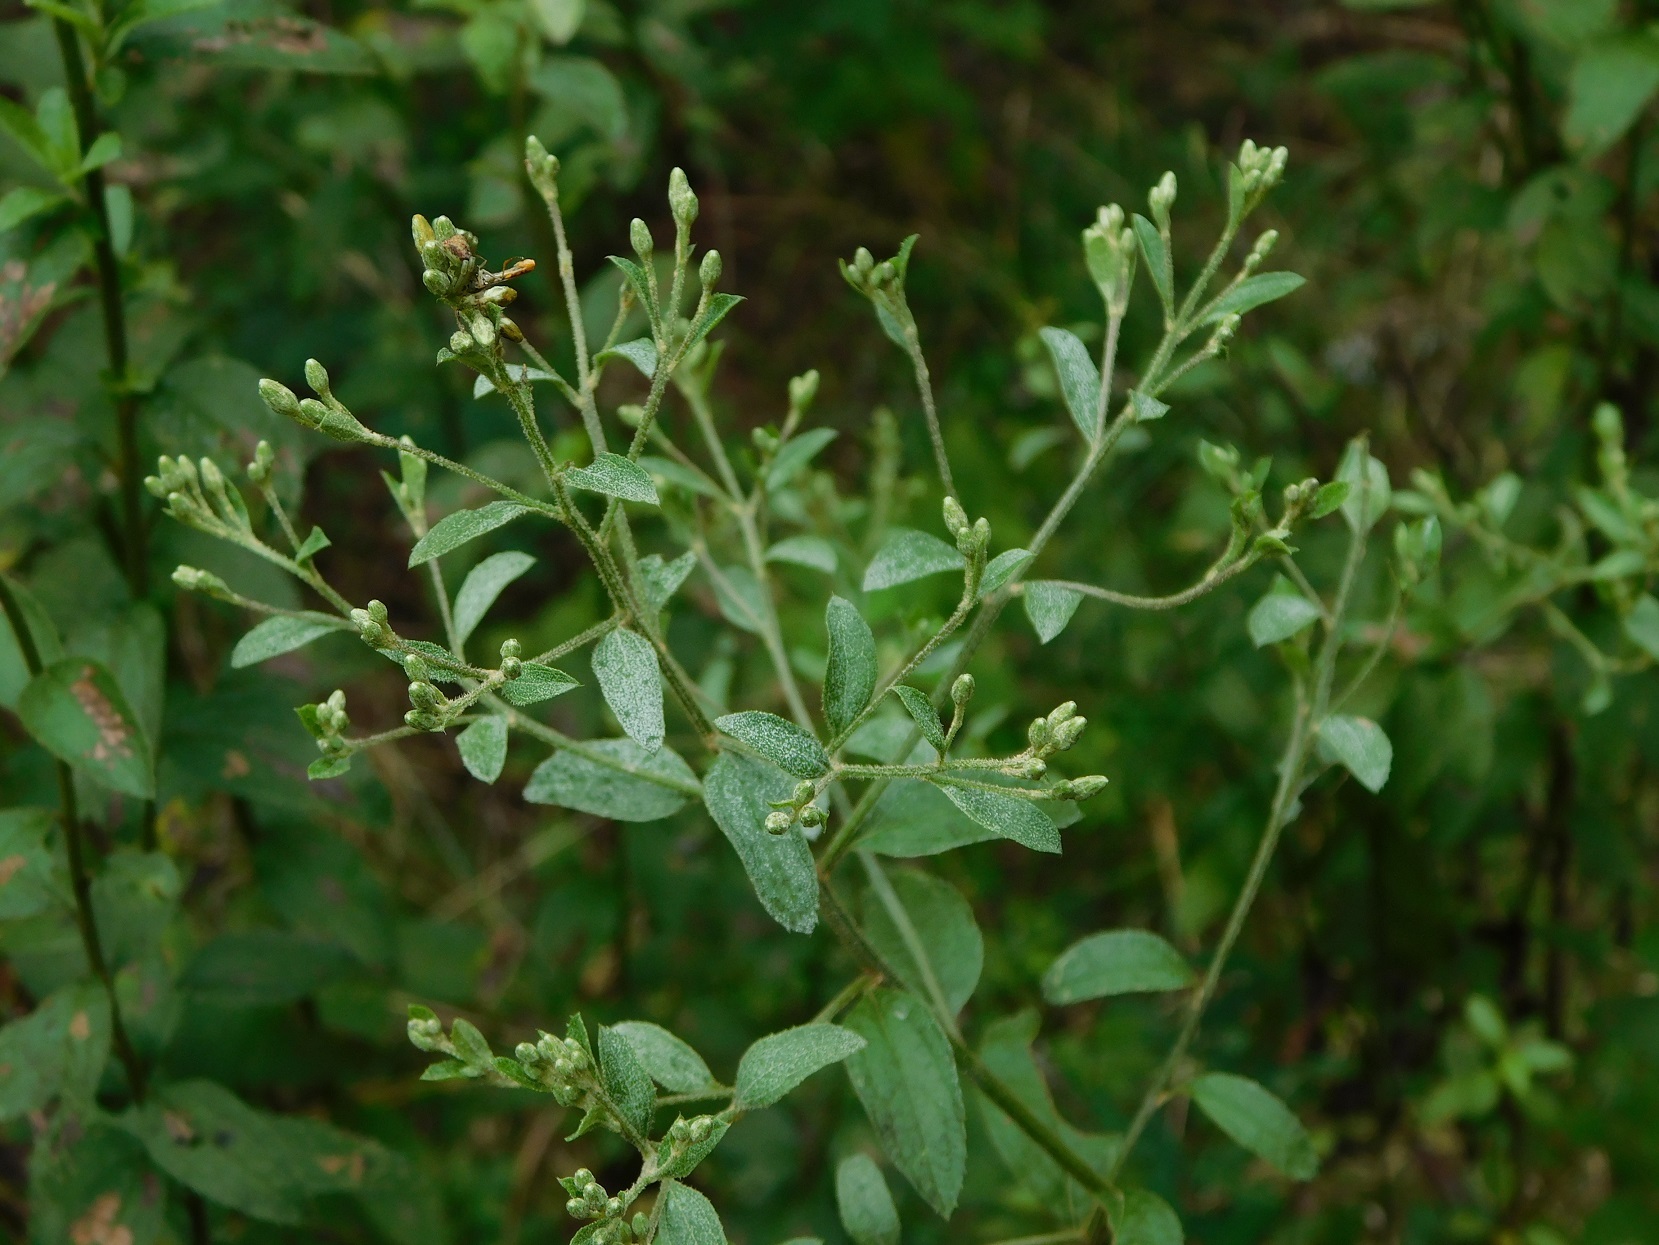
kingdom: Plantae
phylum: Tracheophyta
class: Magnoliopsida
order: Asterales
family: Asteraceae
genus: Archibaccharis
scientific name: Archibaccharis serratifolia
